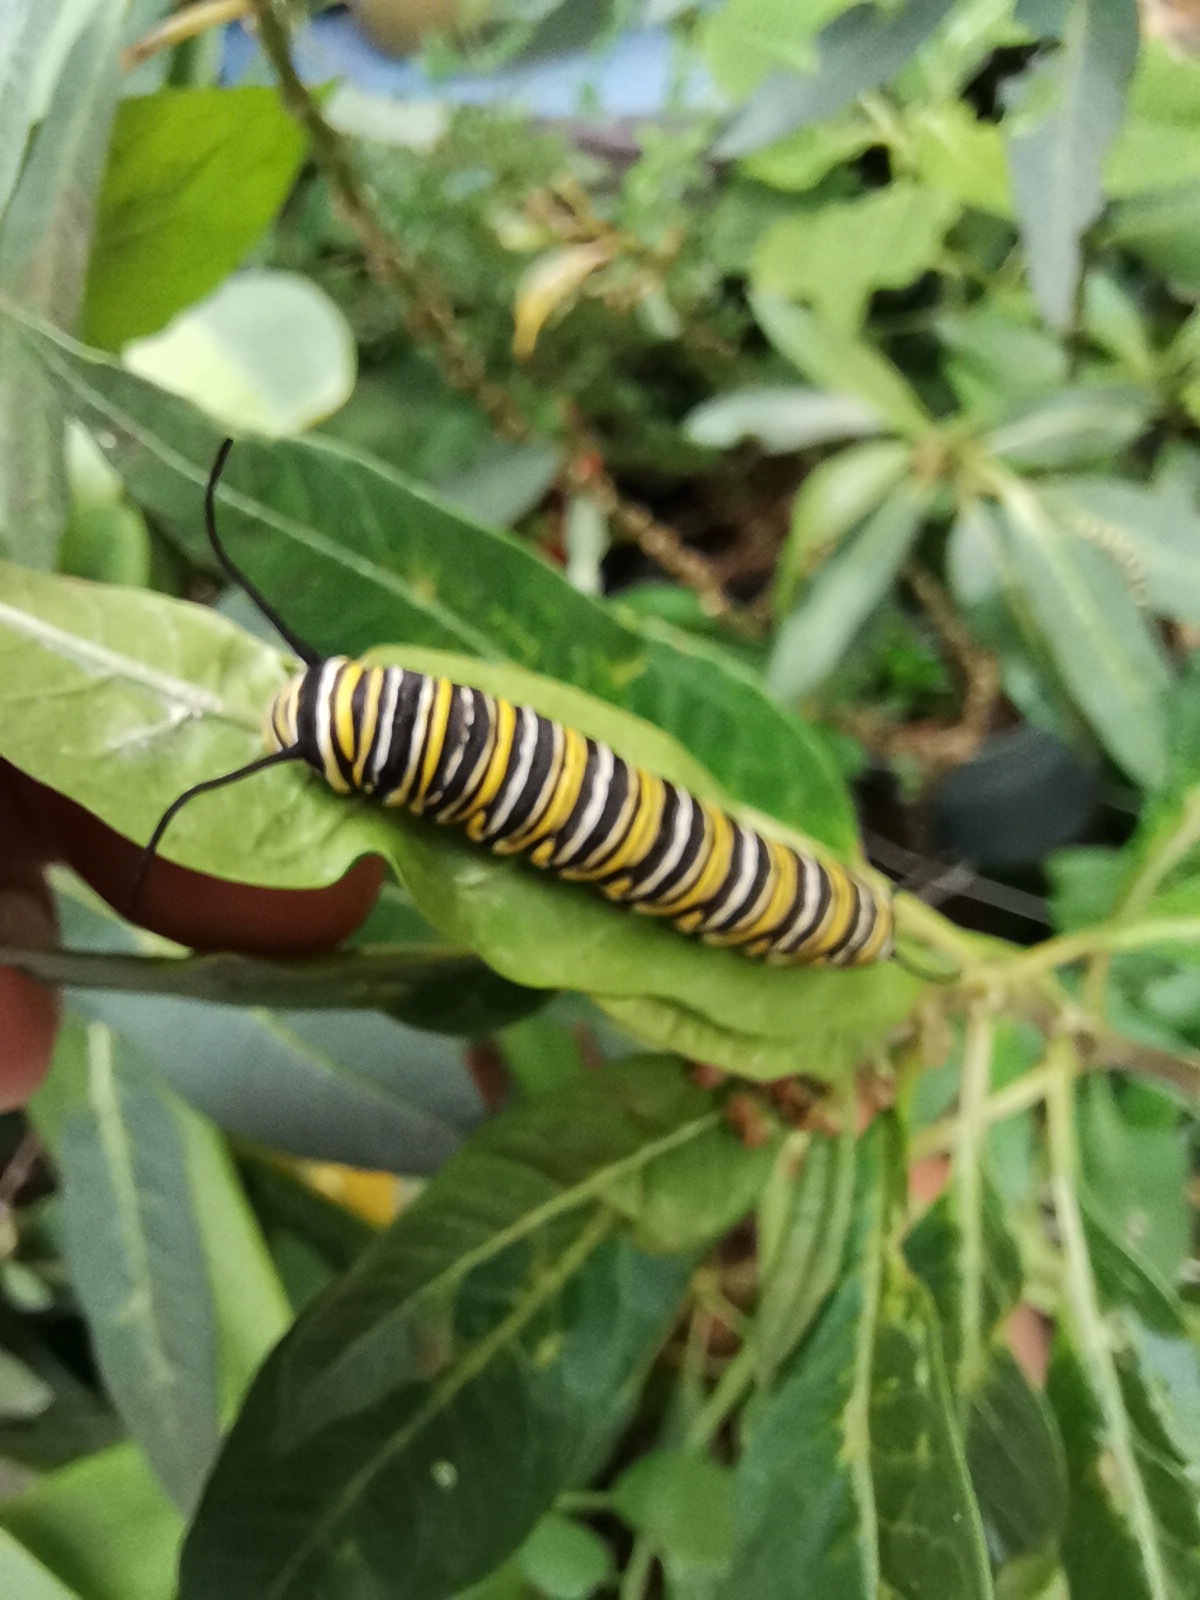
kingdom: Animalia
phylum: Arthropoda
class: Insecta
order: Lepidoptera
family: Nymphalidae
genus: Danaus
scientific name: Danaus plexippus
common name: Monarch
